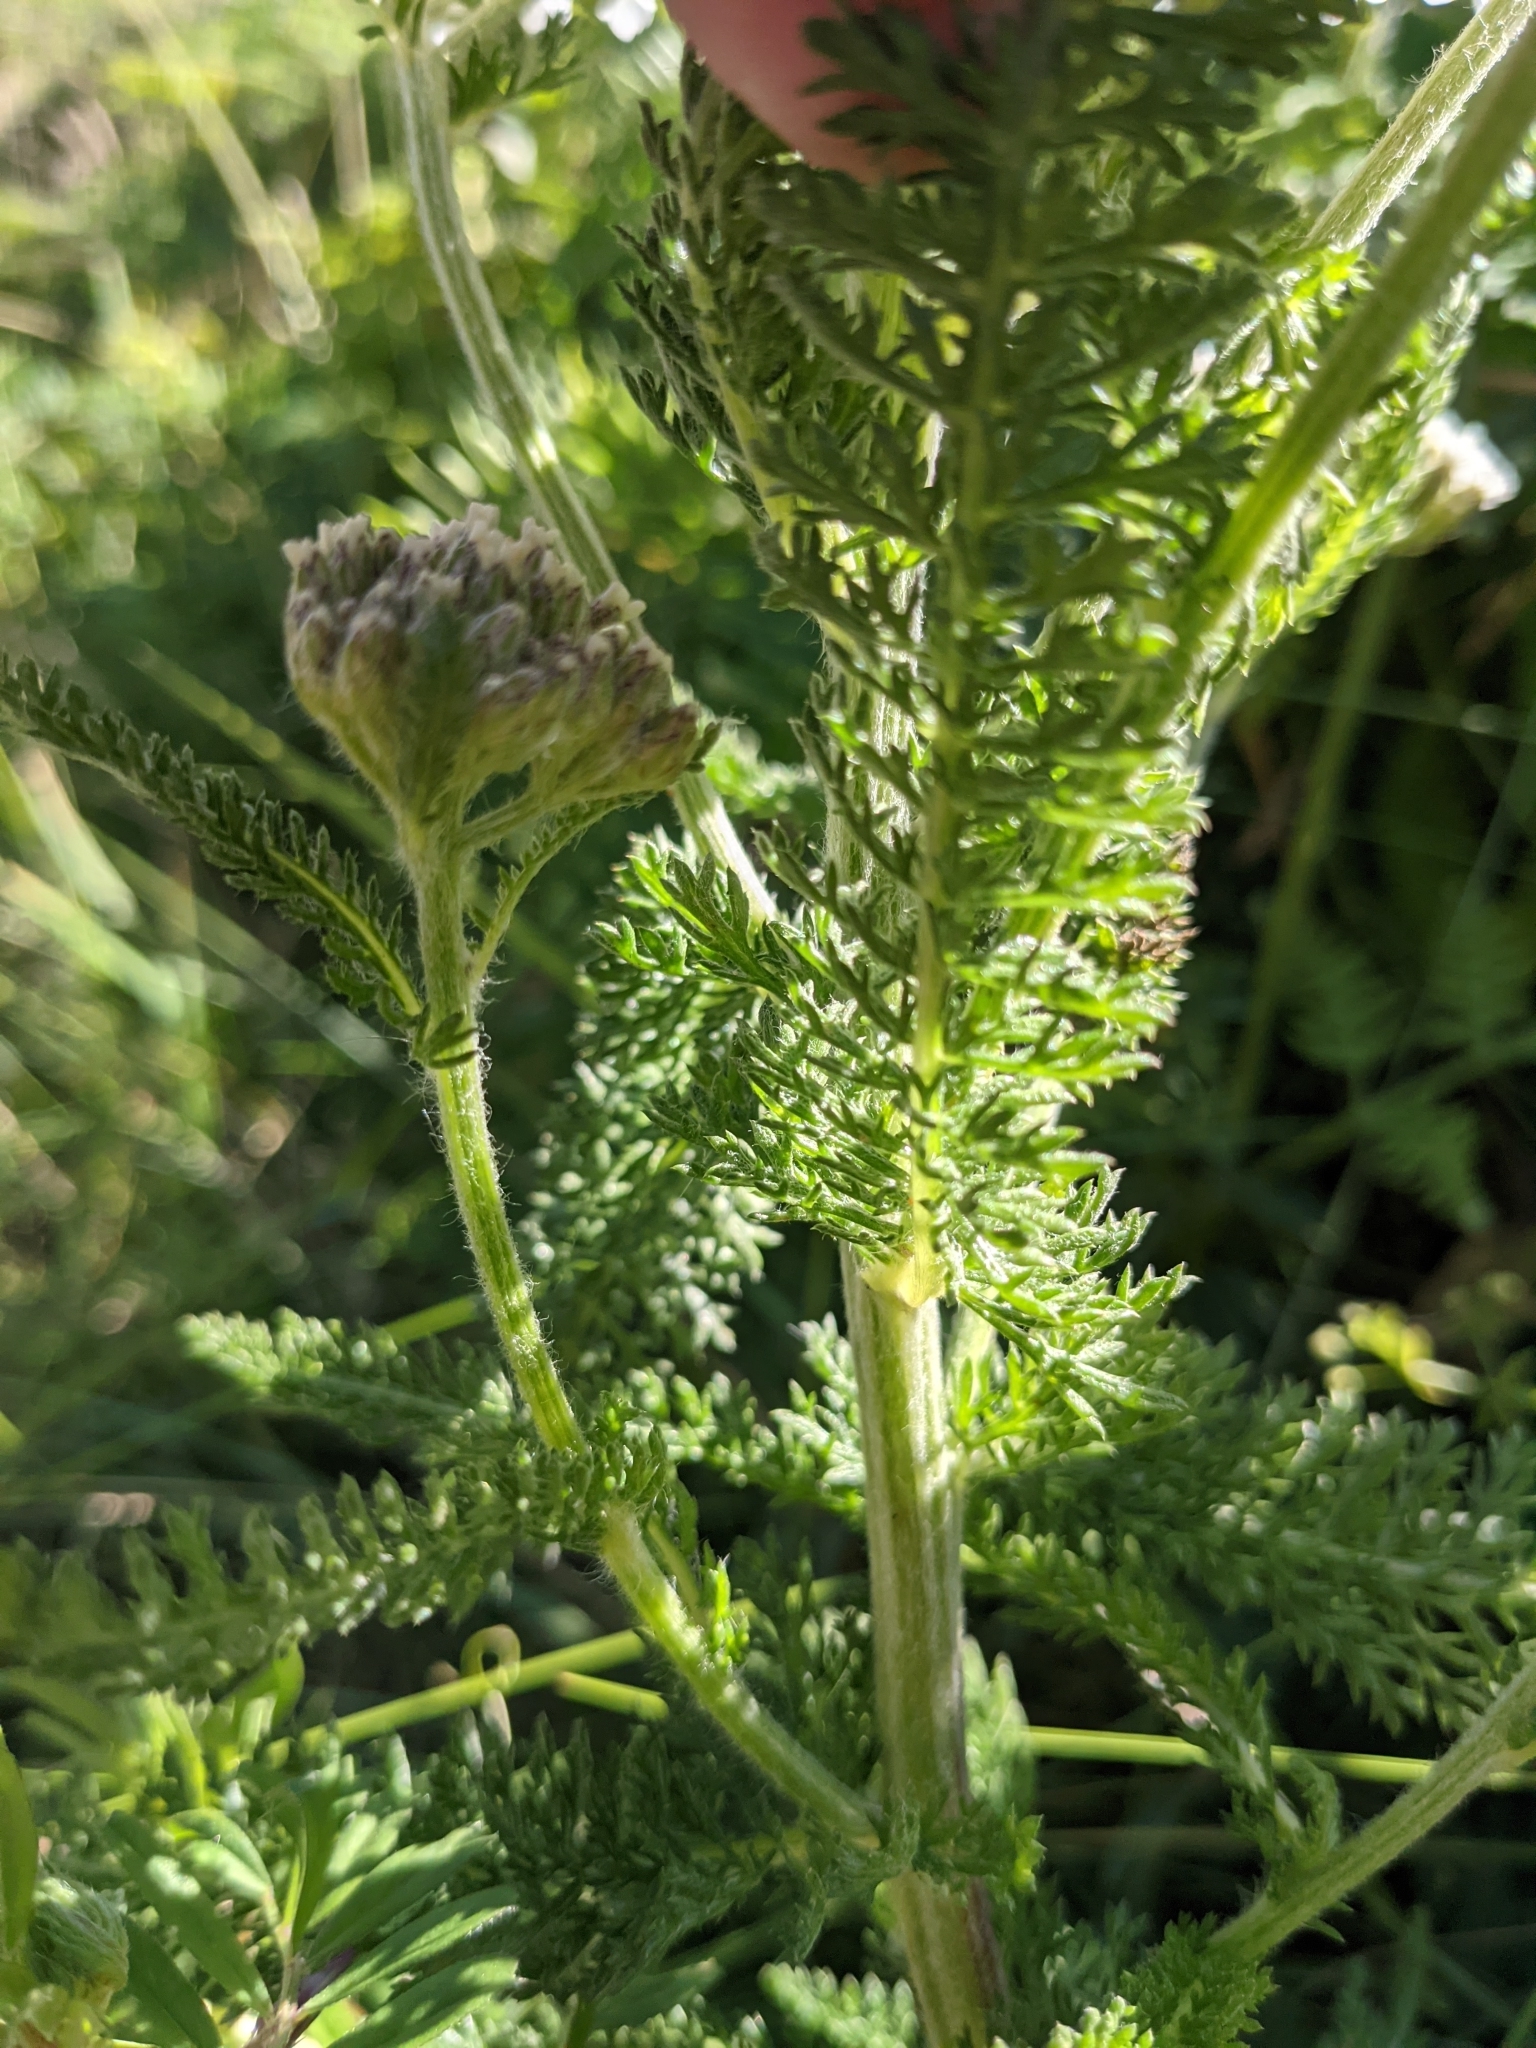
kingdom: Plantae
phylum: Tracheophyta
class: Magnoliopsida
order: Asterales
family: Asteraceae
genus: Achillea
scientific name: Achillea millefolium
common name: Yarrow
